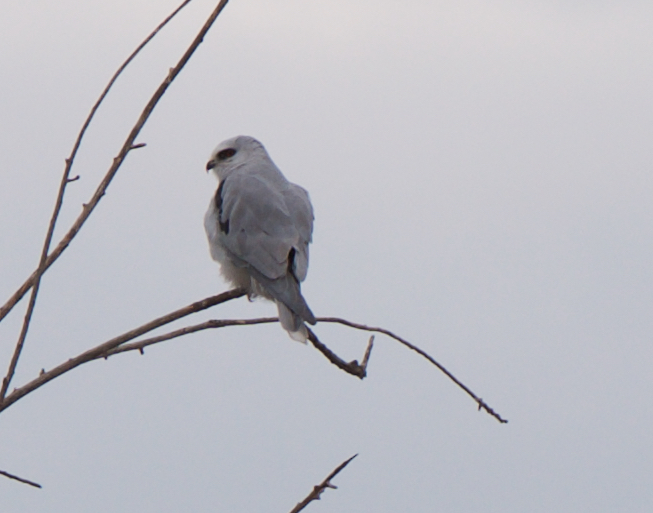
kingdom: Animalia
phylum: Chordata
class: Aves
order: Accipitriformes
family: Accipitridae
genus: Elanus
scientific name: Elanus leucurus
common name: White-tailed kite
